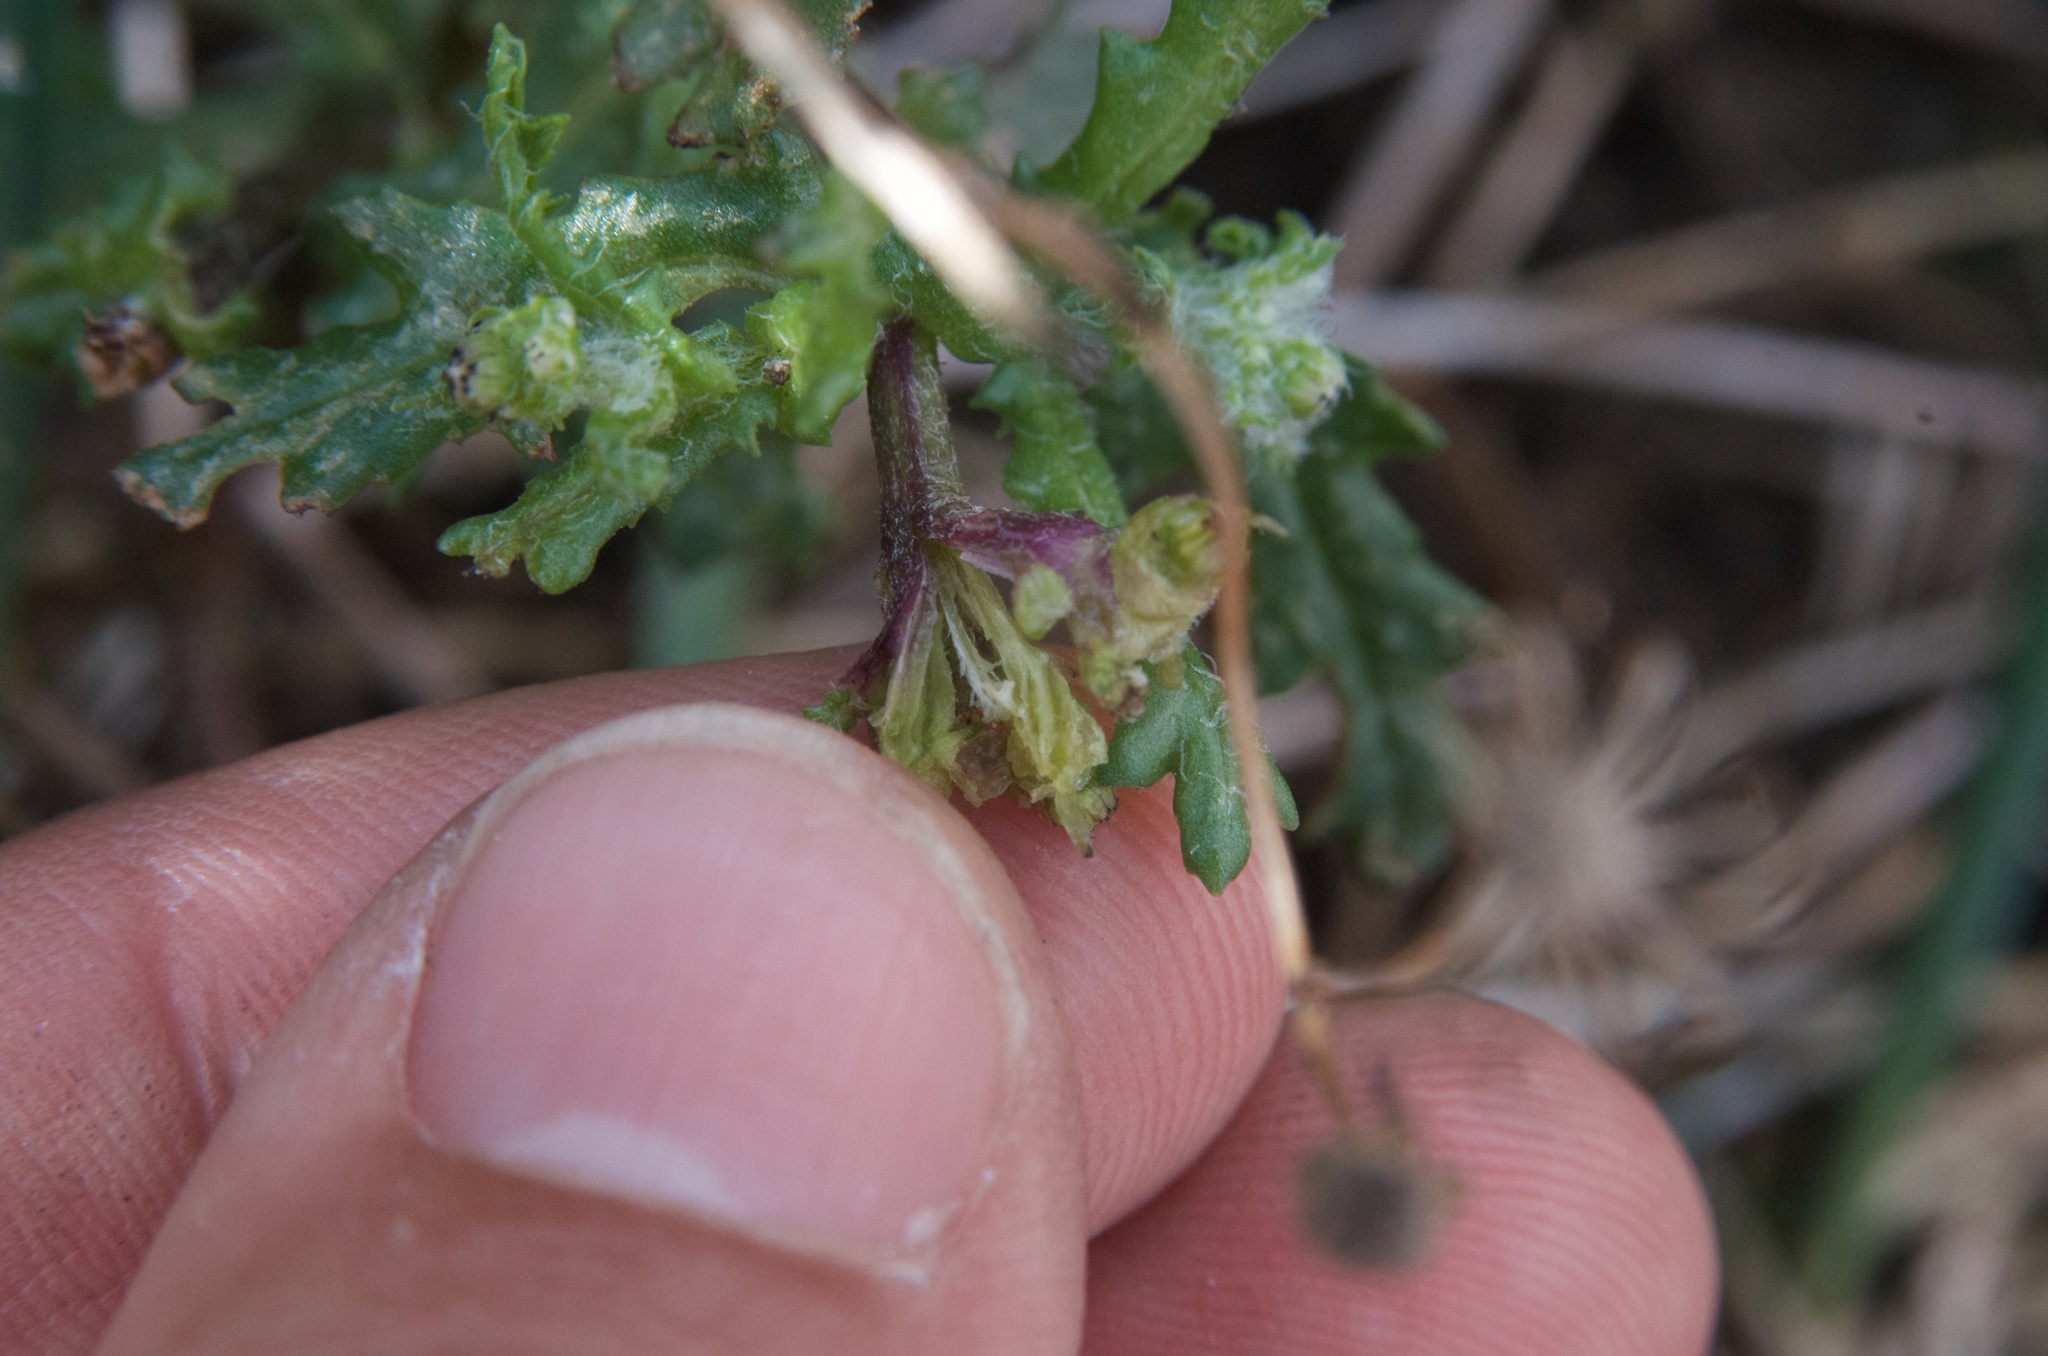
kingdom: Plantae
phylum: Tracheophyta
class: Magnoliopsida
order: Asterales
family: Asteraceae
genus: Senecio
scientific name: Senecio vulgaris
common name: Old-man-in-the-spring
